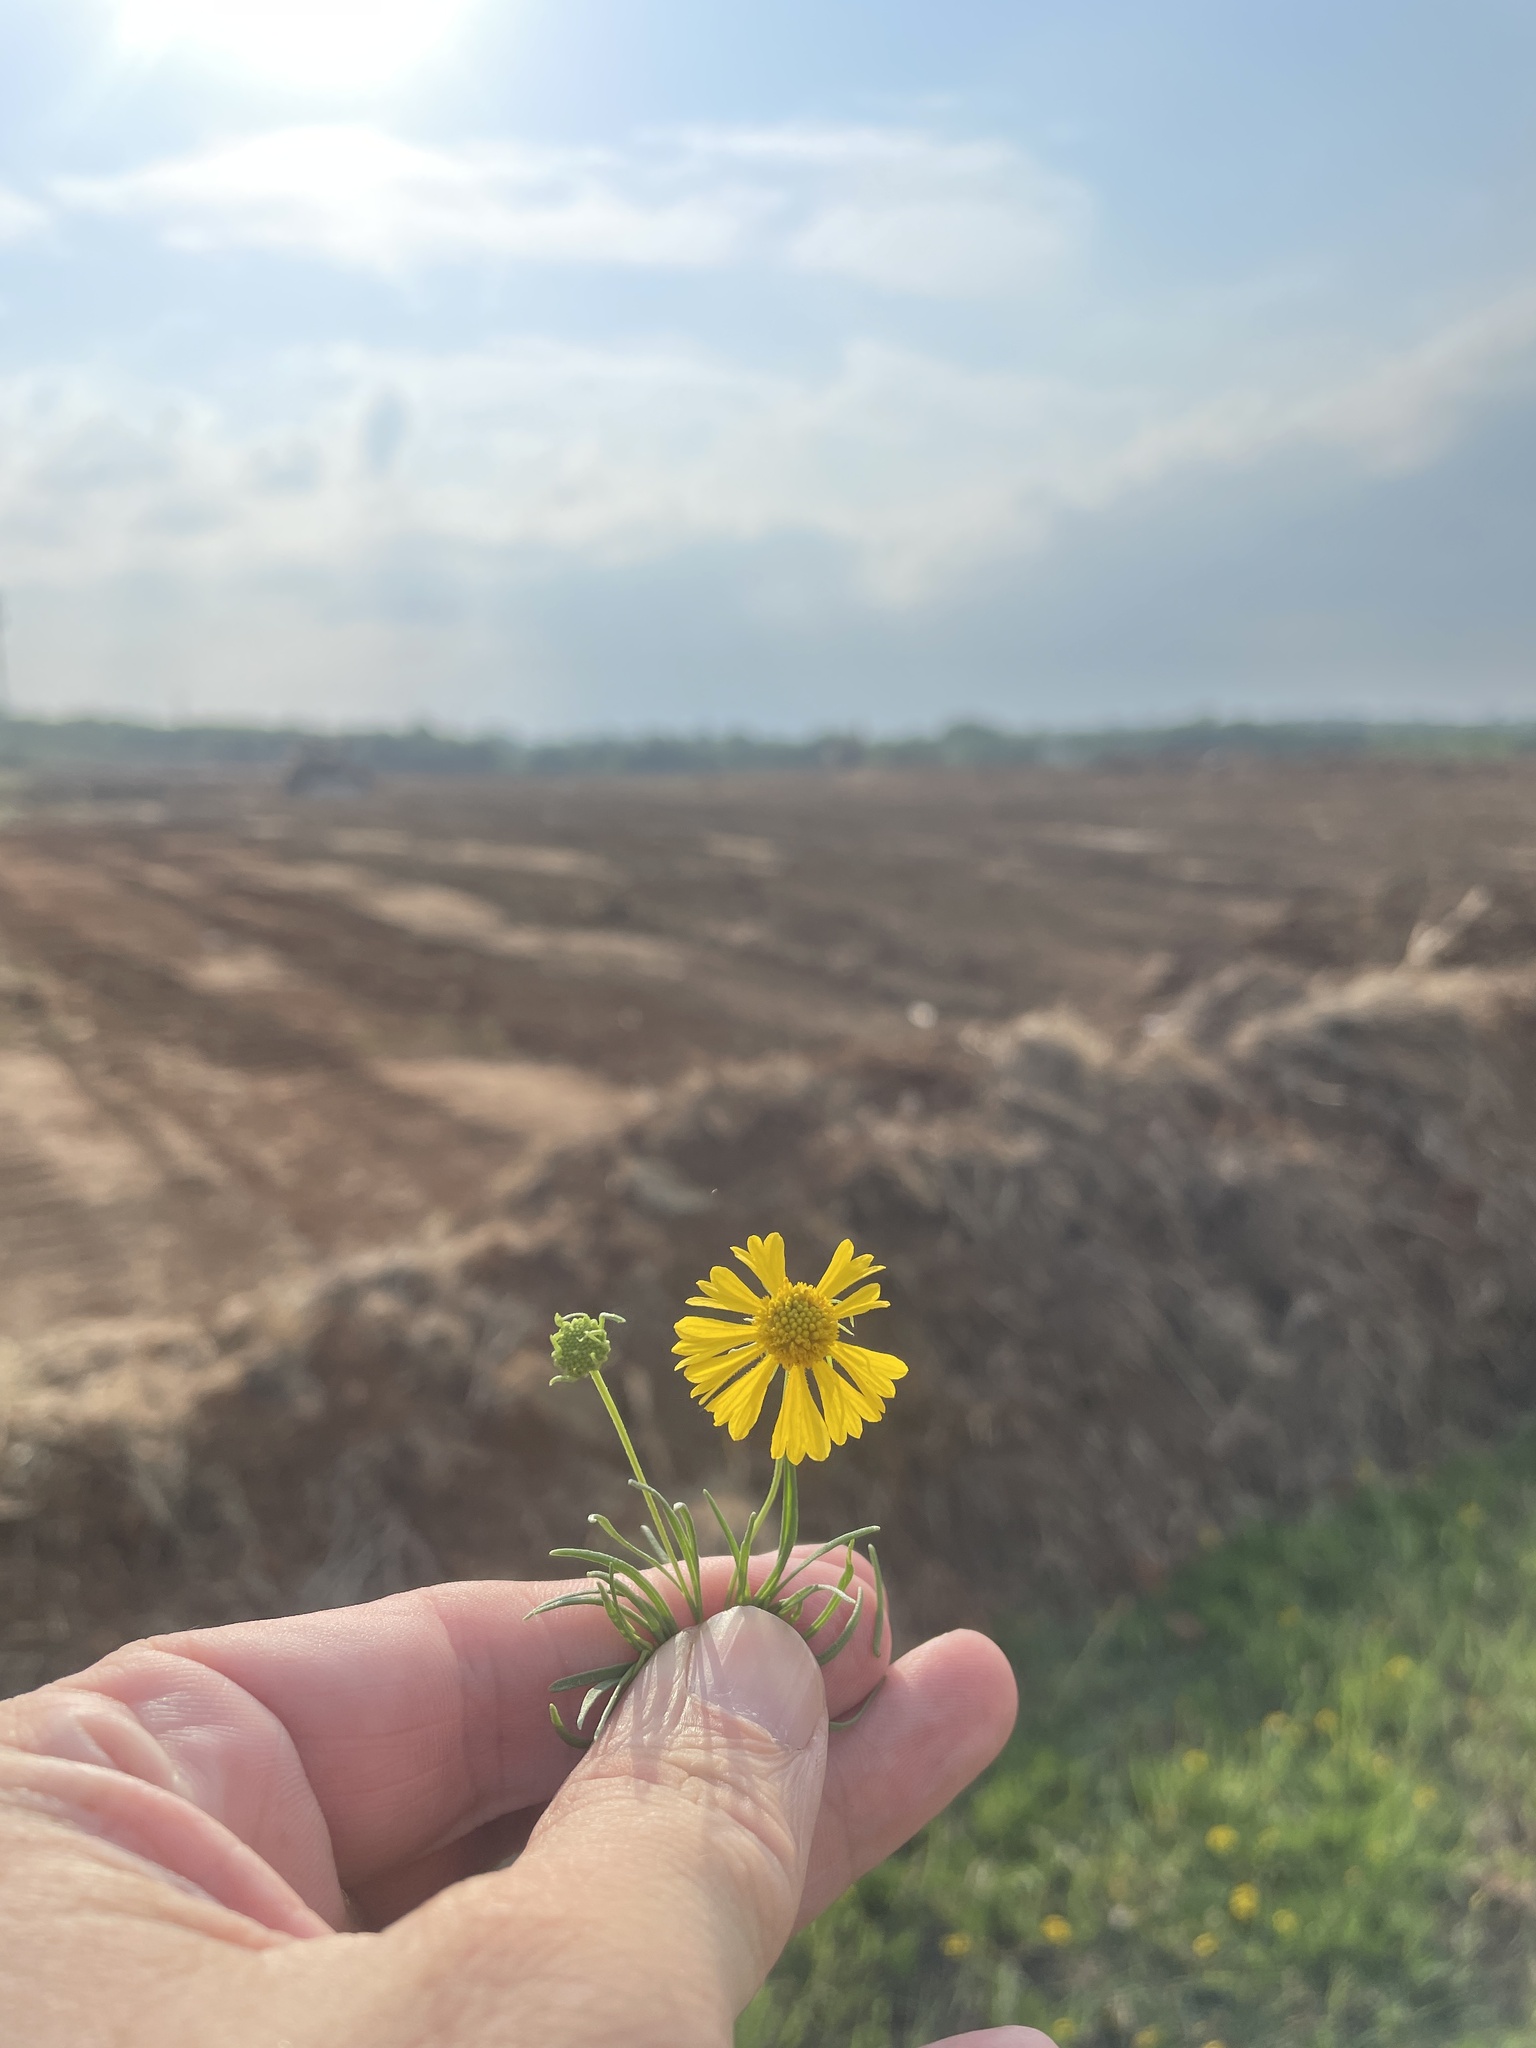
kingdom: Plantae
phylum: Tracheophyta
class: Magnoliopsida
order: Asterales
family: Asteraceae
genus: Helenium
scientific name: Helenium amarum
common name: Bitter sneezeweed
